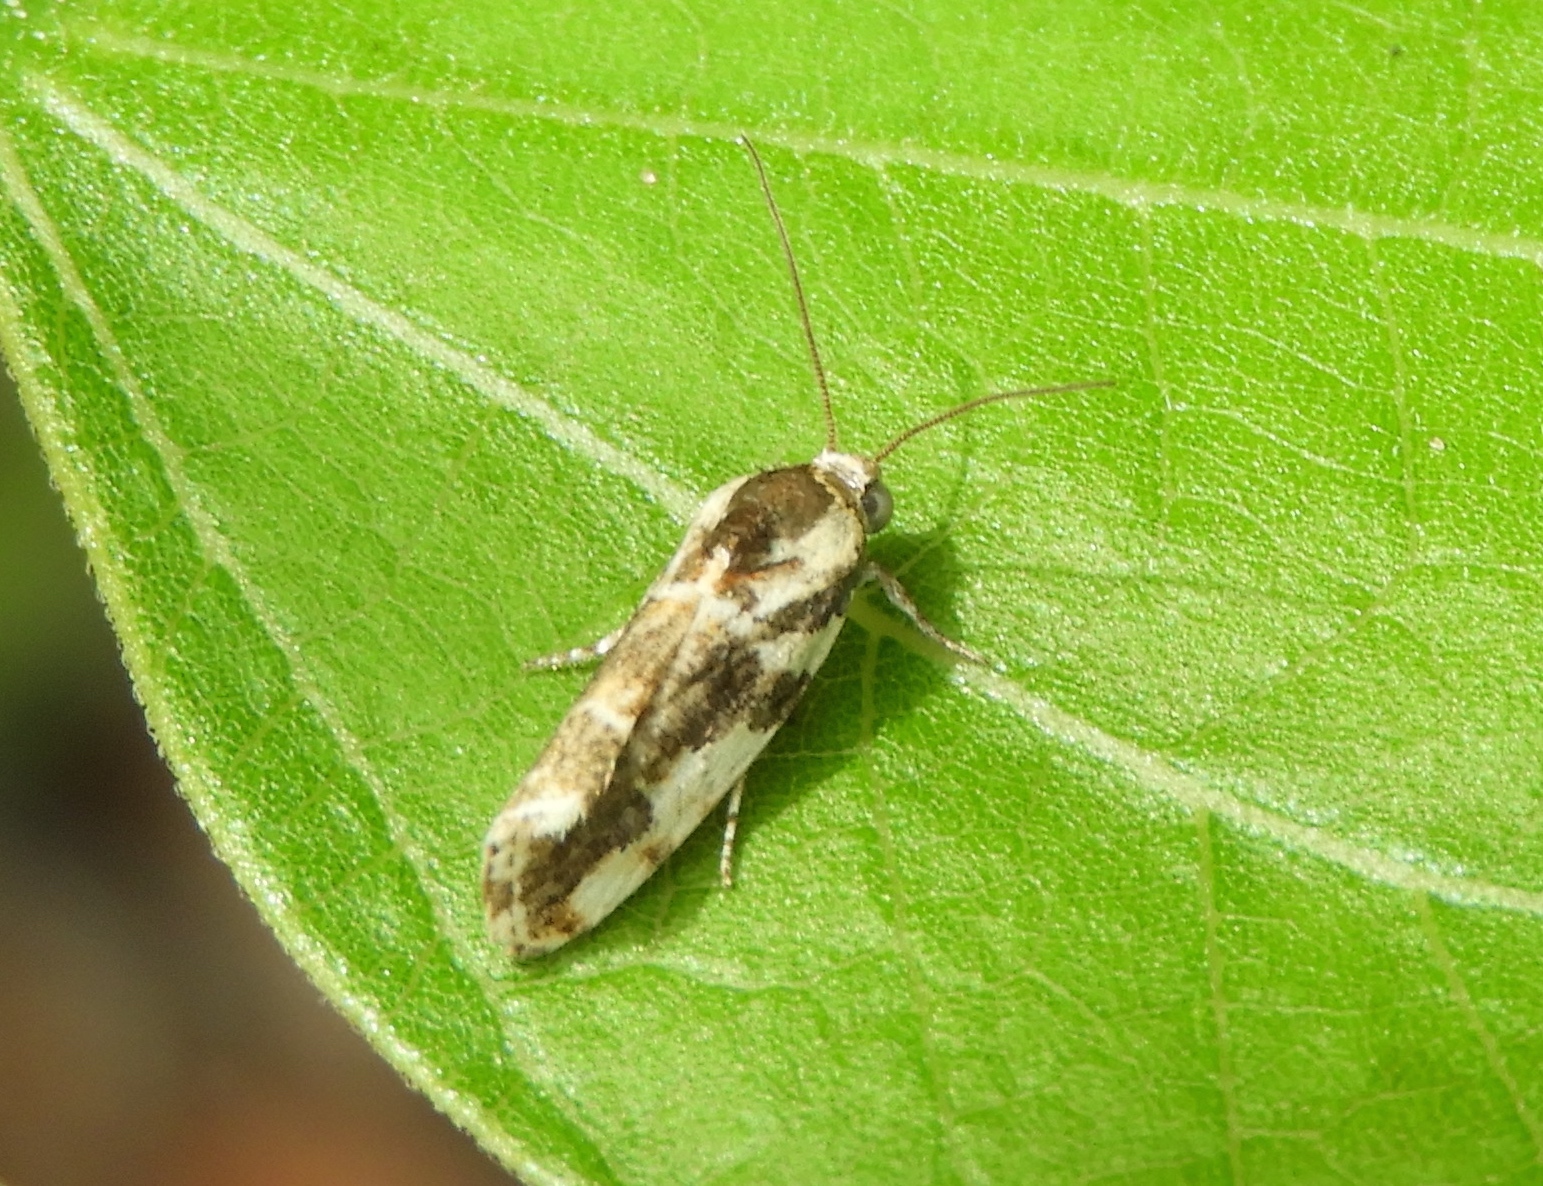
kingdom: Animalia
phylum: Arthropoda
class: Insecta
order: Lepidoptera
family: Noctuidae
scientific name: Noctuidae
